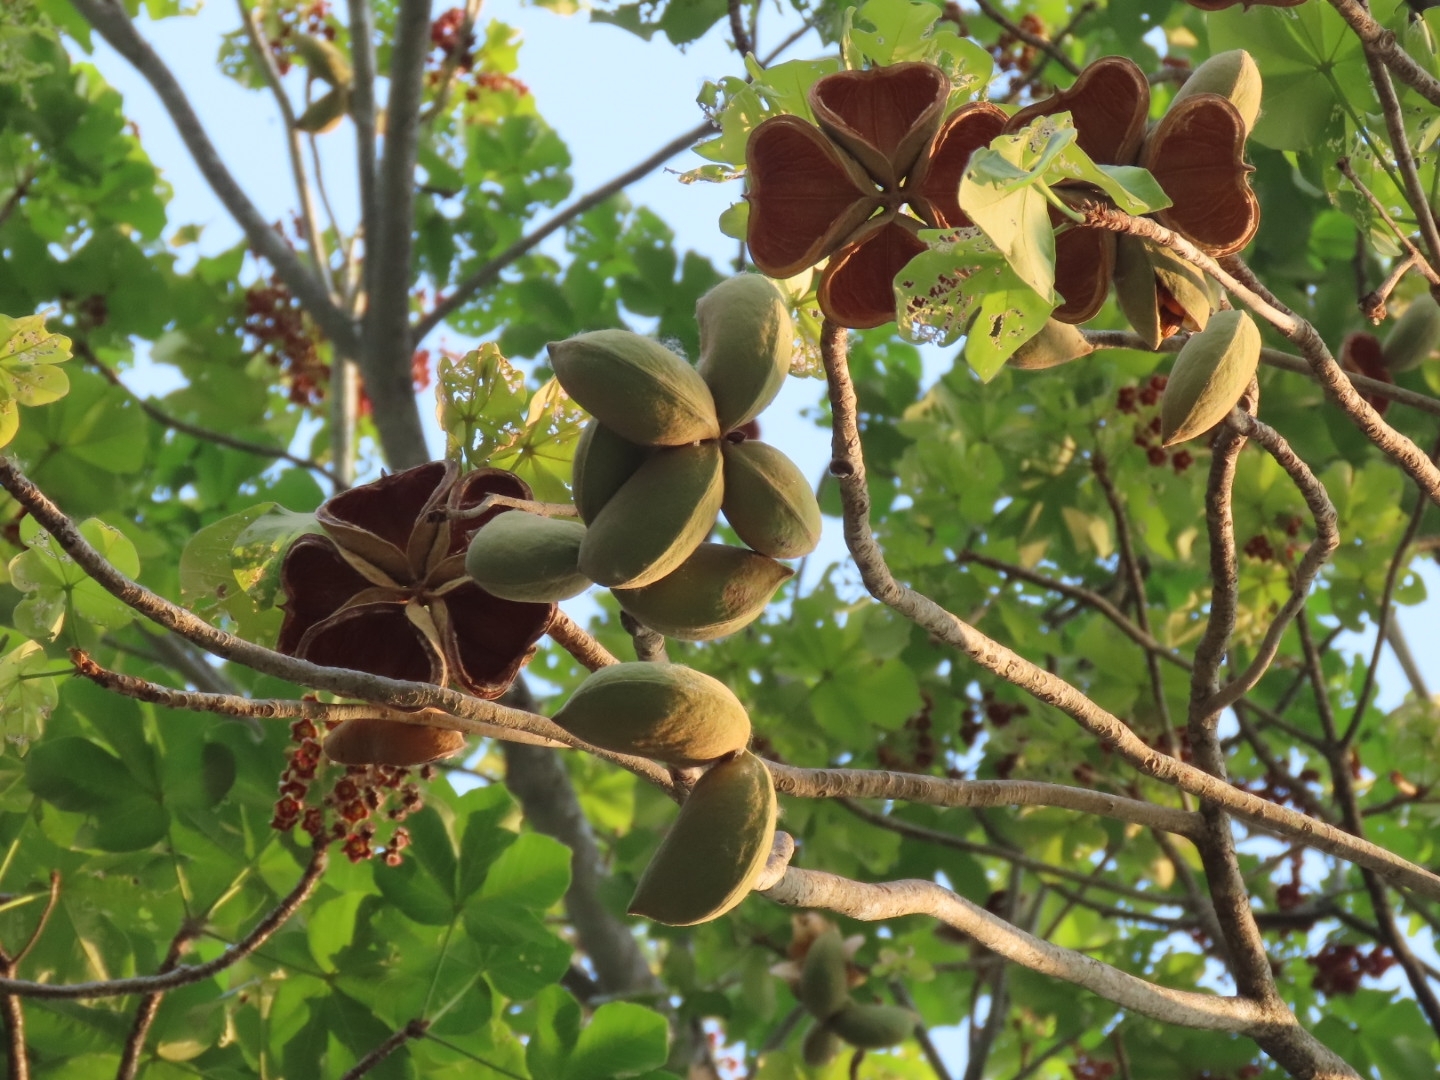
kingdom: Plantae
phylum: Tracheophyta
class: Magnoliopsida
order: Malvales
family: Malvaceae
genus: Sterculia
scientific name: Sterculia apetala
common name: Panama tree
